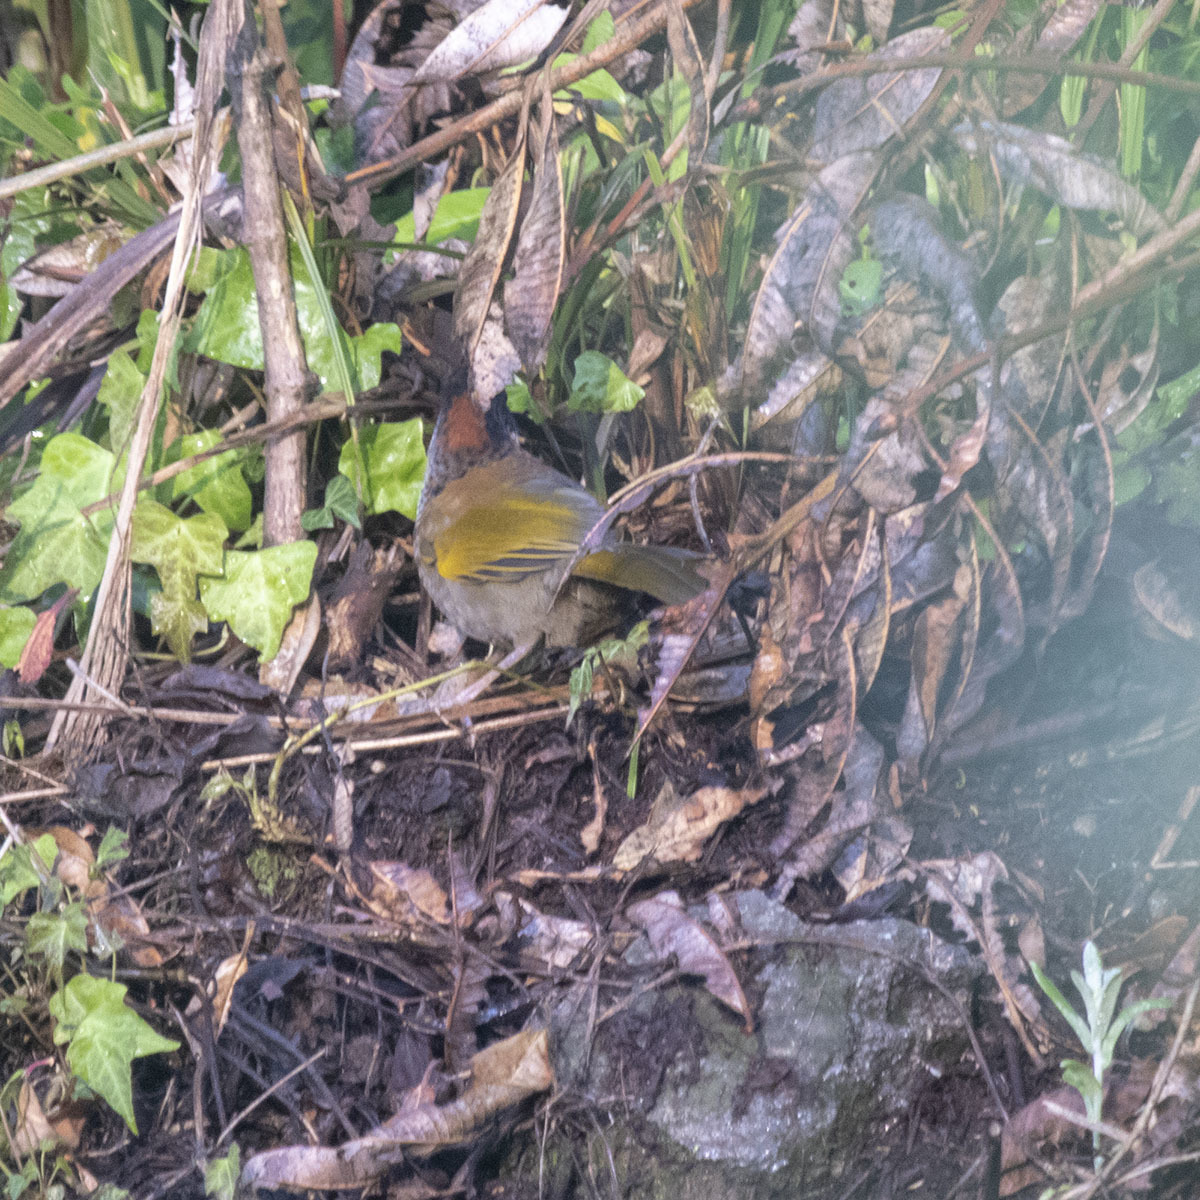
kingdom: Animalia
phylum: Chordata
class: Aves
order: Passeriformes
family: Leiothrichidae
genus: Trochalopteron
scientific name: Trochalopteron erythrocephalum
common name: Chestnut-crowned laughingthrush
